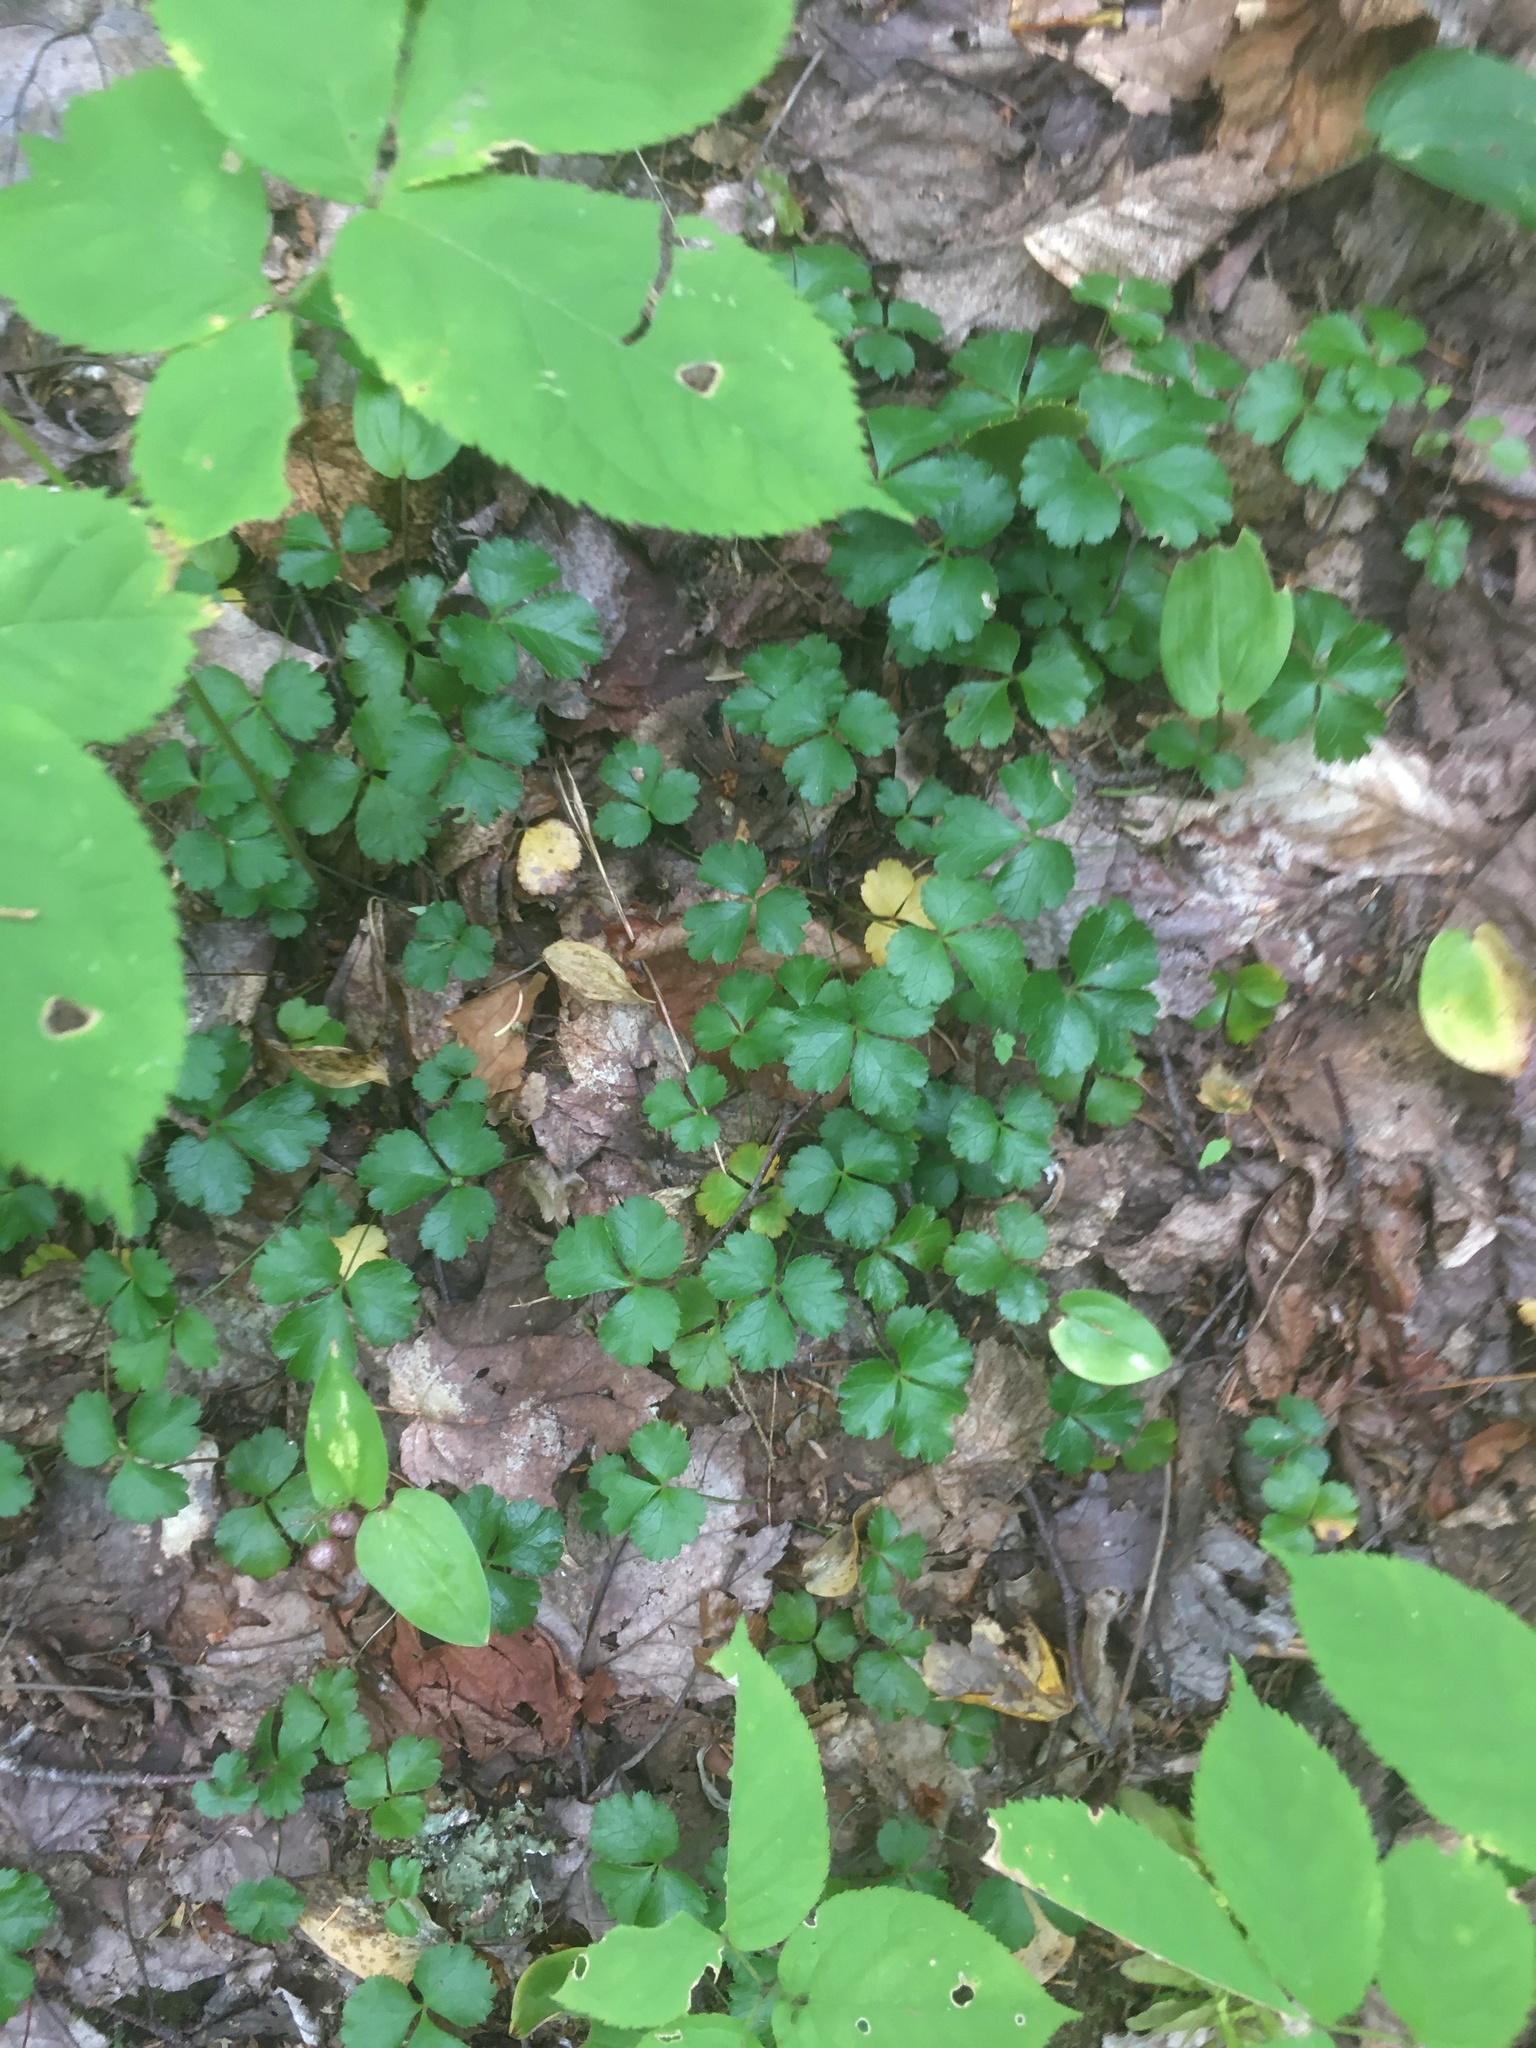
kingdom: Plantae
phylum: Tracheophyta
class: Magnoliopsida
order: Ranunculales
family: Ranunculaceae
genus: Coptis
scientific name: Coptis trifolia
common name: Canker-root
